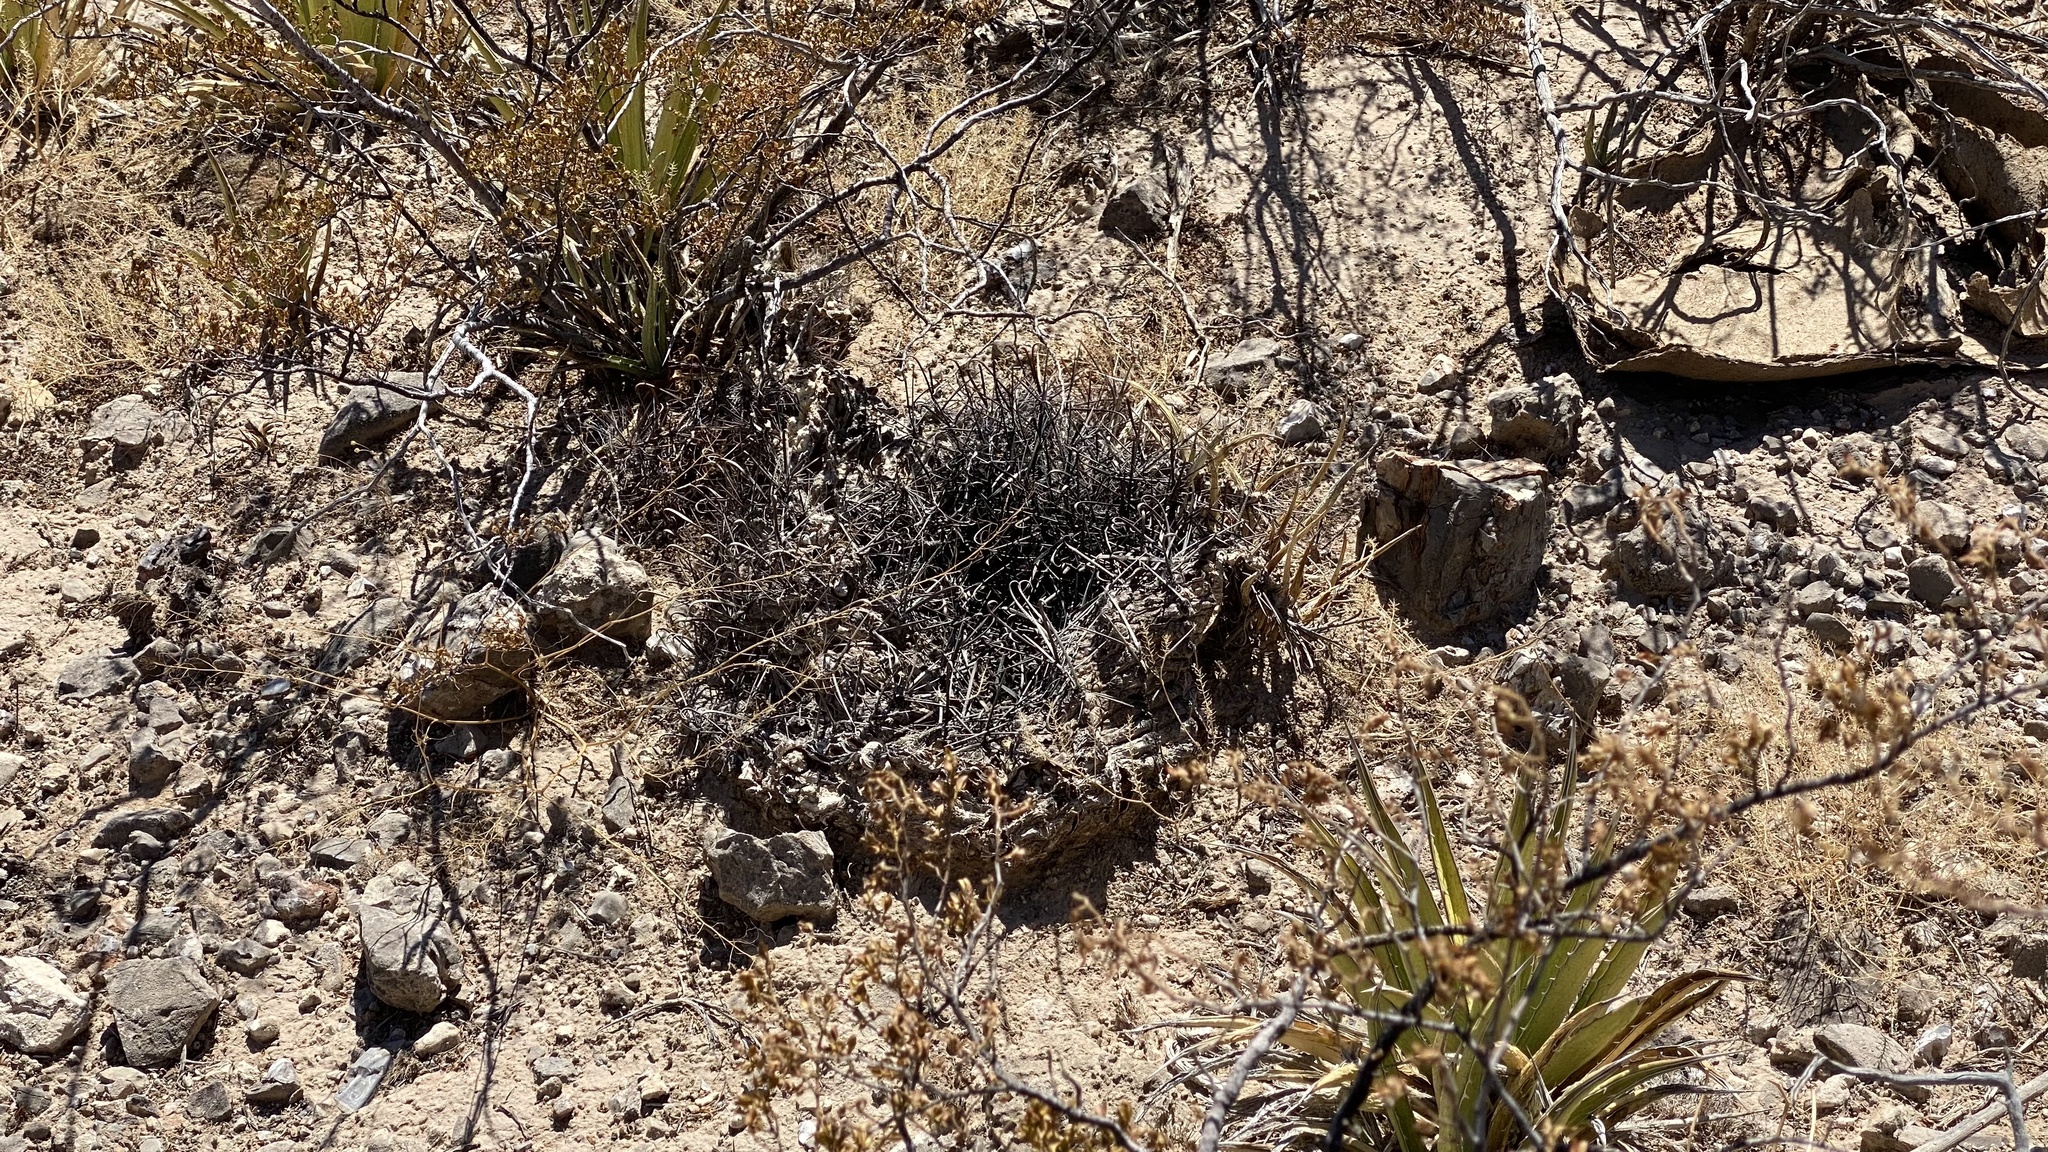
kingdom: Plantae
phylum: Tracheophyta
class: Magnoliopsida
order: Caryophyllales
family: Cactaceae
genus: Ferocactus
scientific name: Ferocactus wislizeni
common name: Candy barrel cactus
